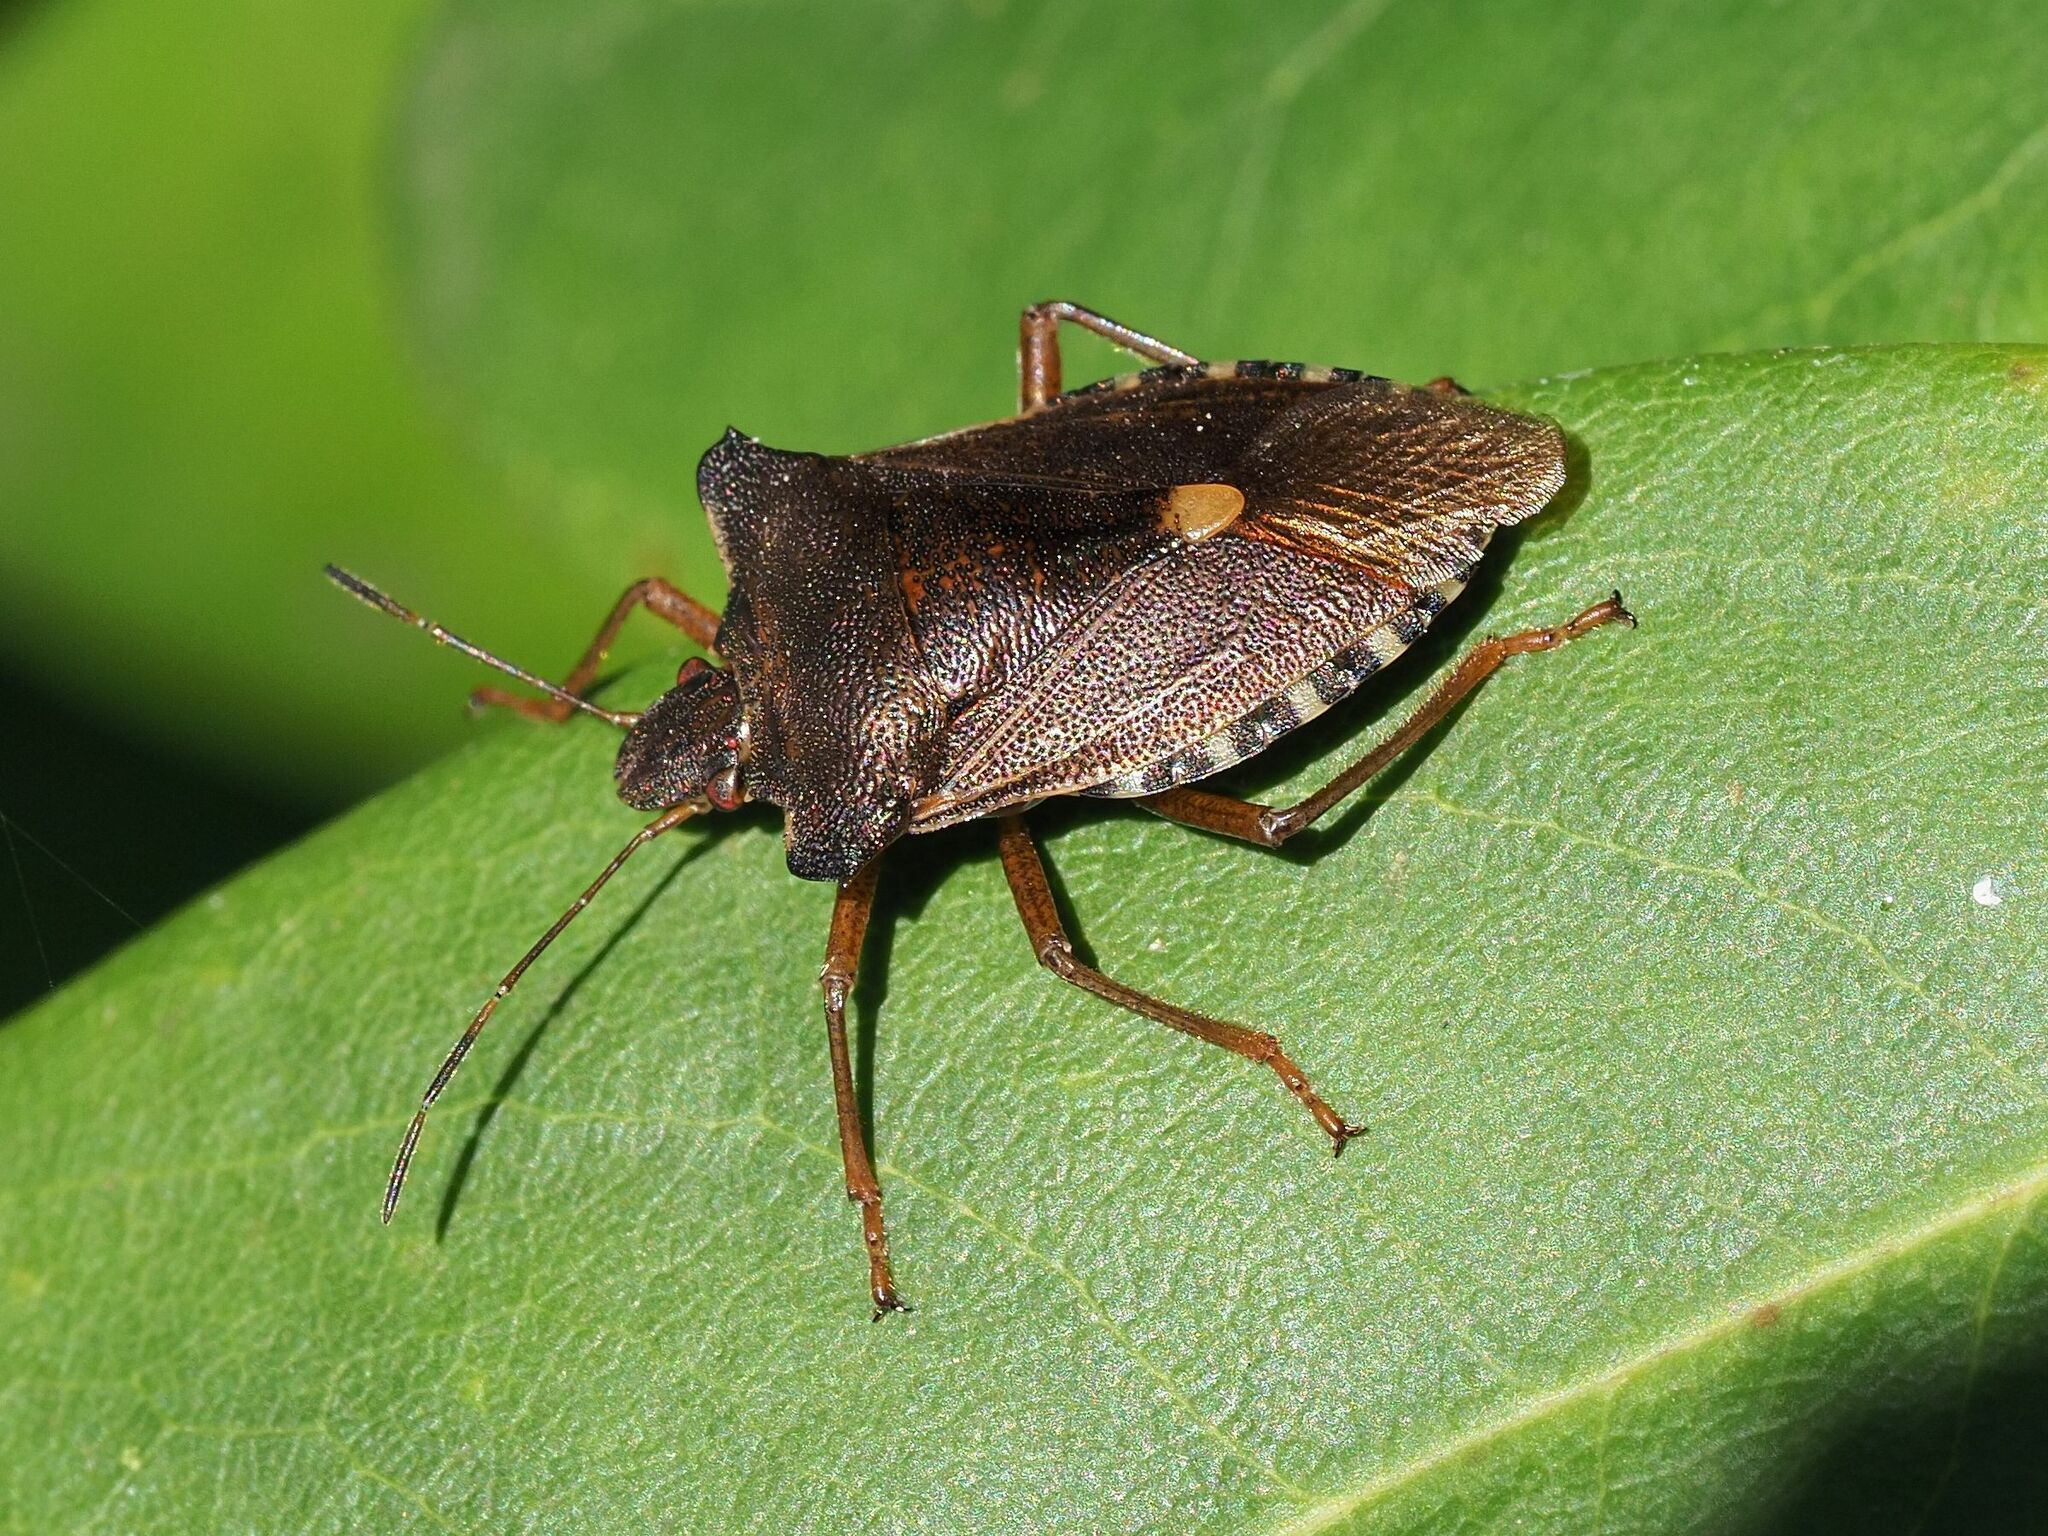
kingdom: Animalia
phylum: Arthropoda
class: Insecta
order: Hemiptera
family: Pentatomidae
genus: Pentatoma
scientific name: Pentatoma rufipes
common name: Forest bug
